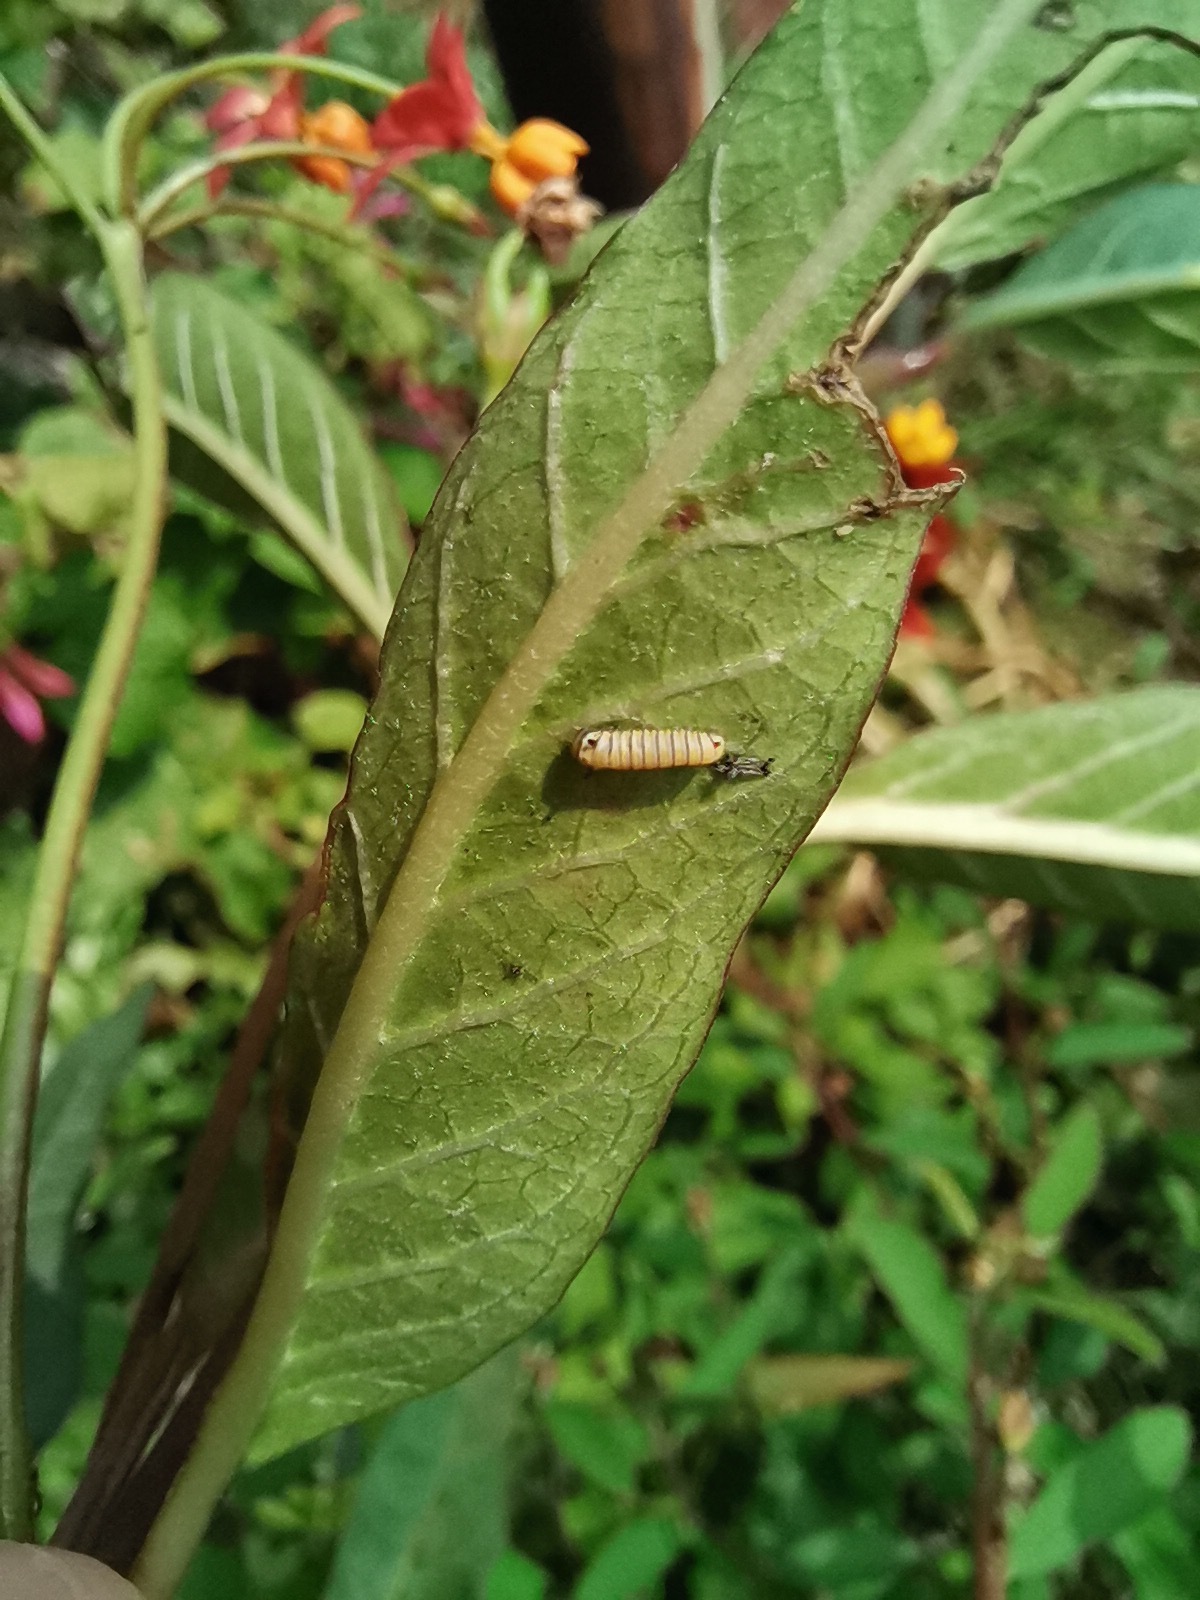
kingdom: Animalia
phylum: Arthropoda
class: Insecta
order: Lepidoptera
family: Nymphalidae
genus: Danaus
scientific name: Danaus plexippus
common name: Monarch
